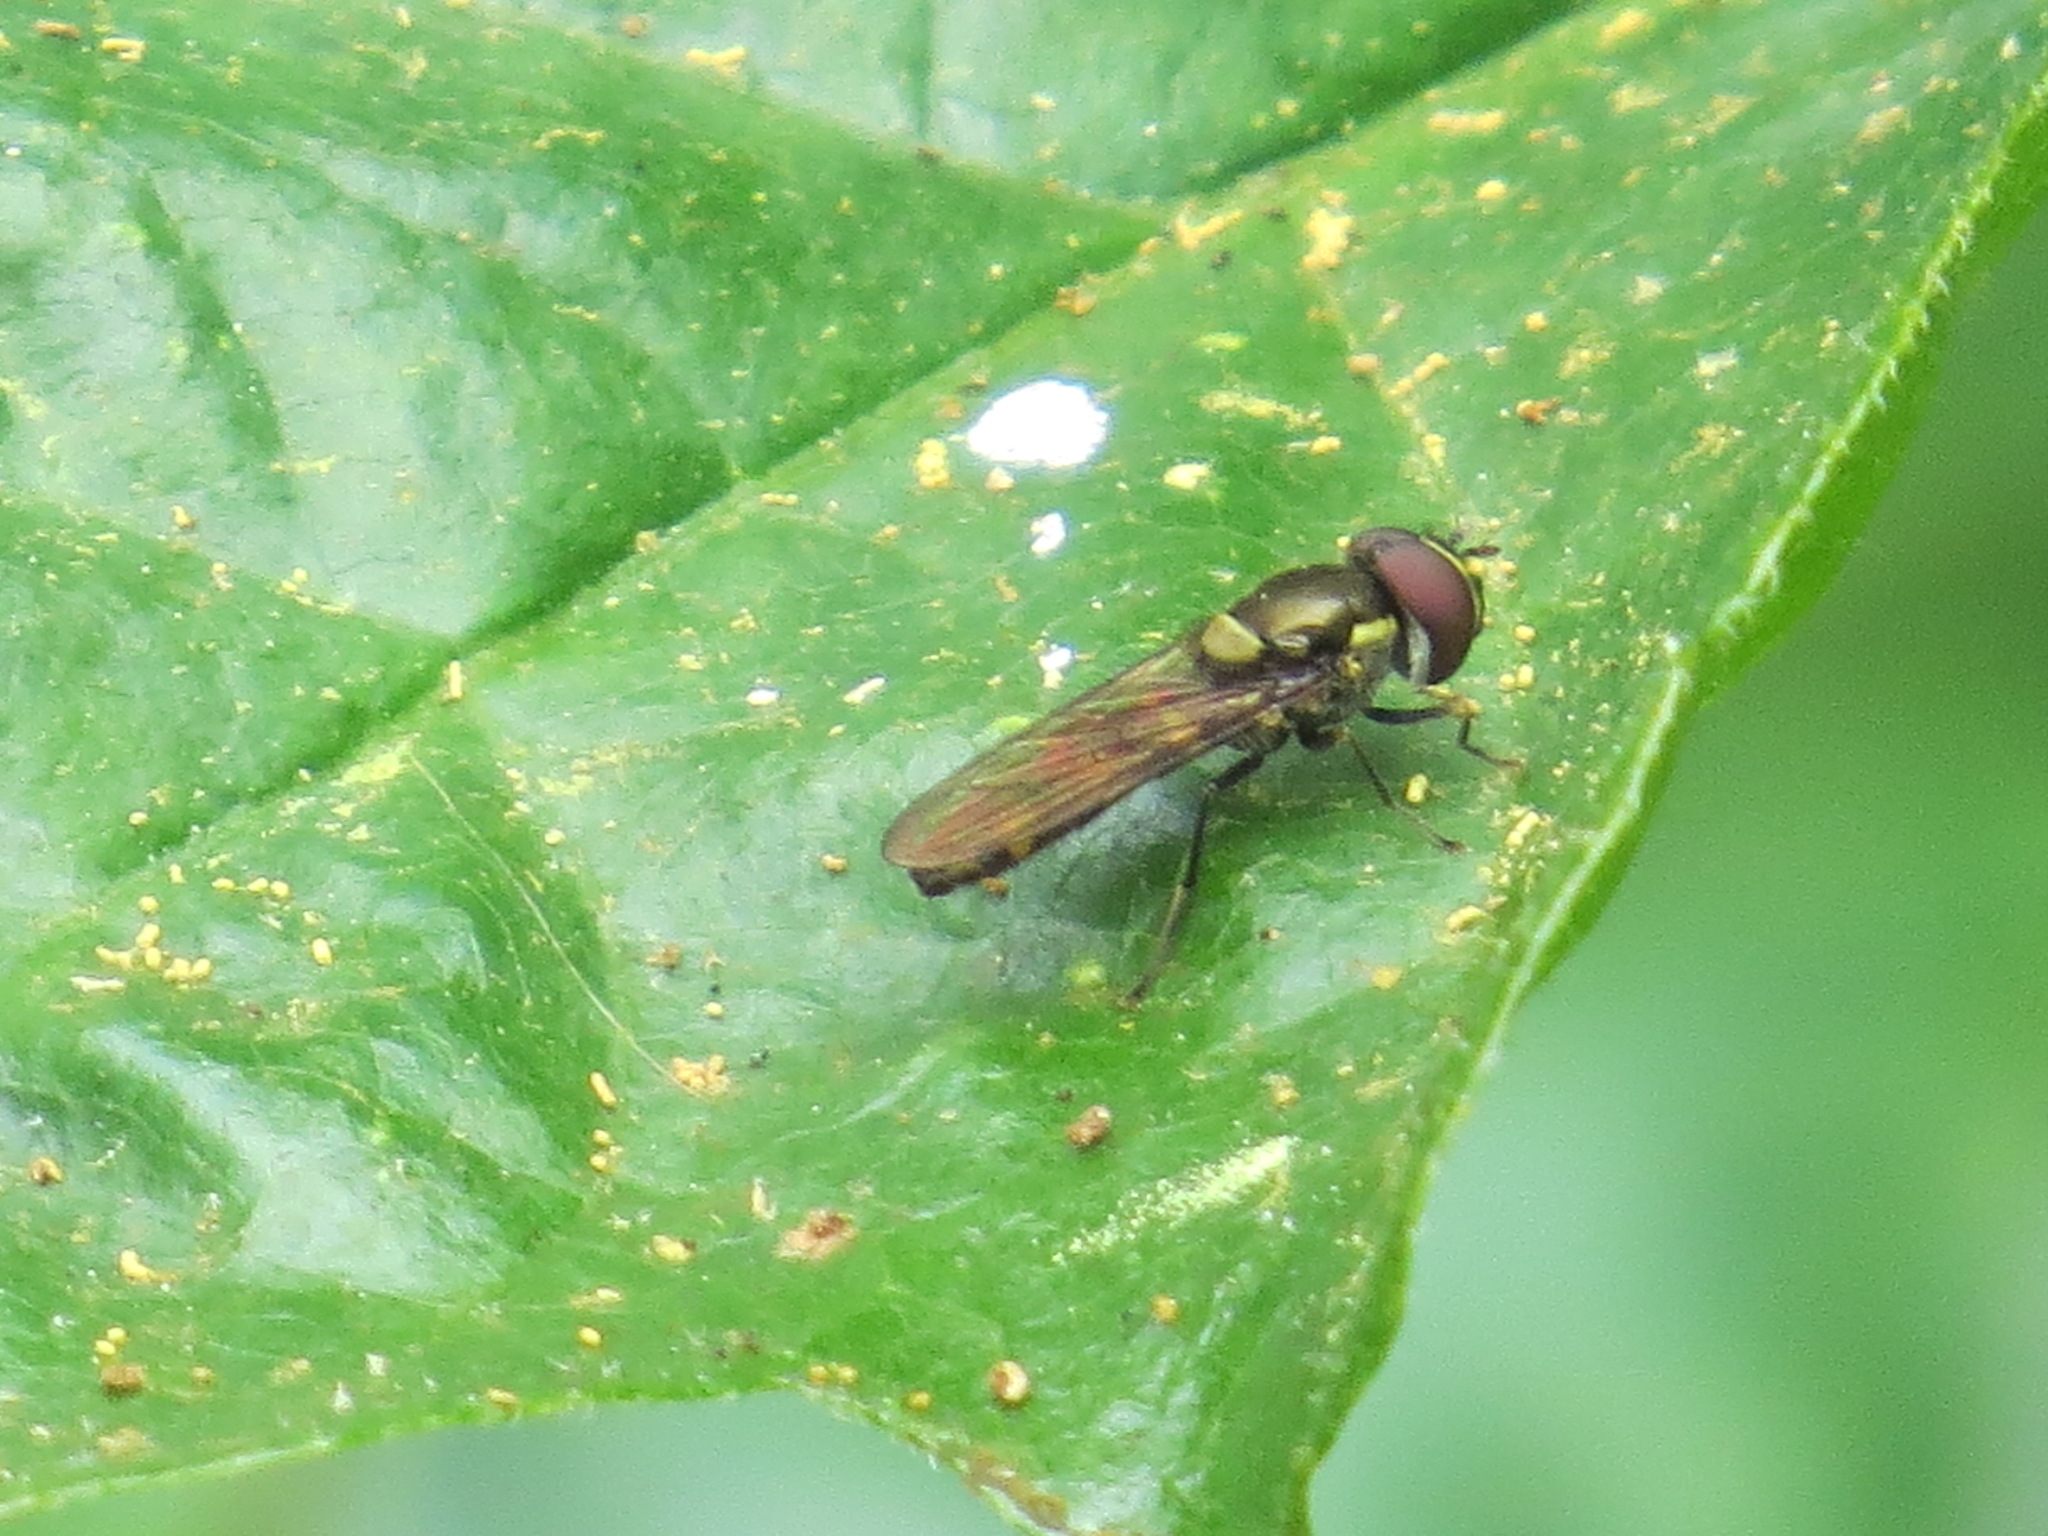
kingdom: Animalia
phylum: Arthropoda
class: Insecta
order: Diptera
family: Syrphidae
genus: Fazia
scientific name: Fazia micrura
